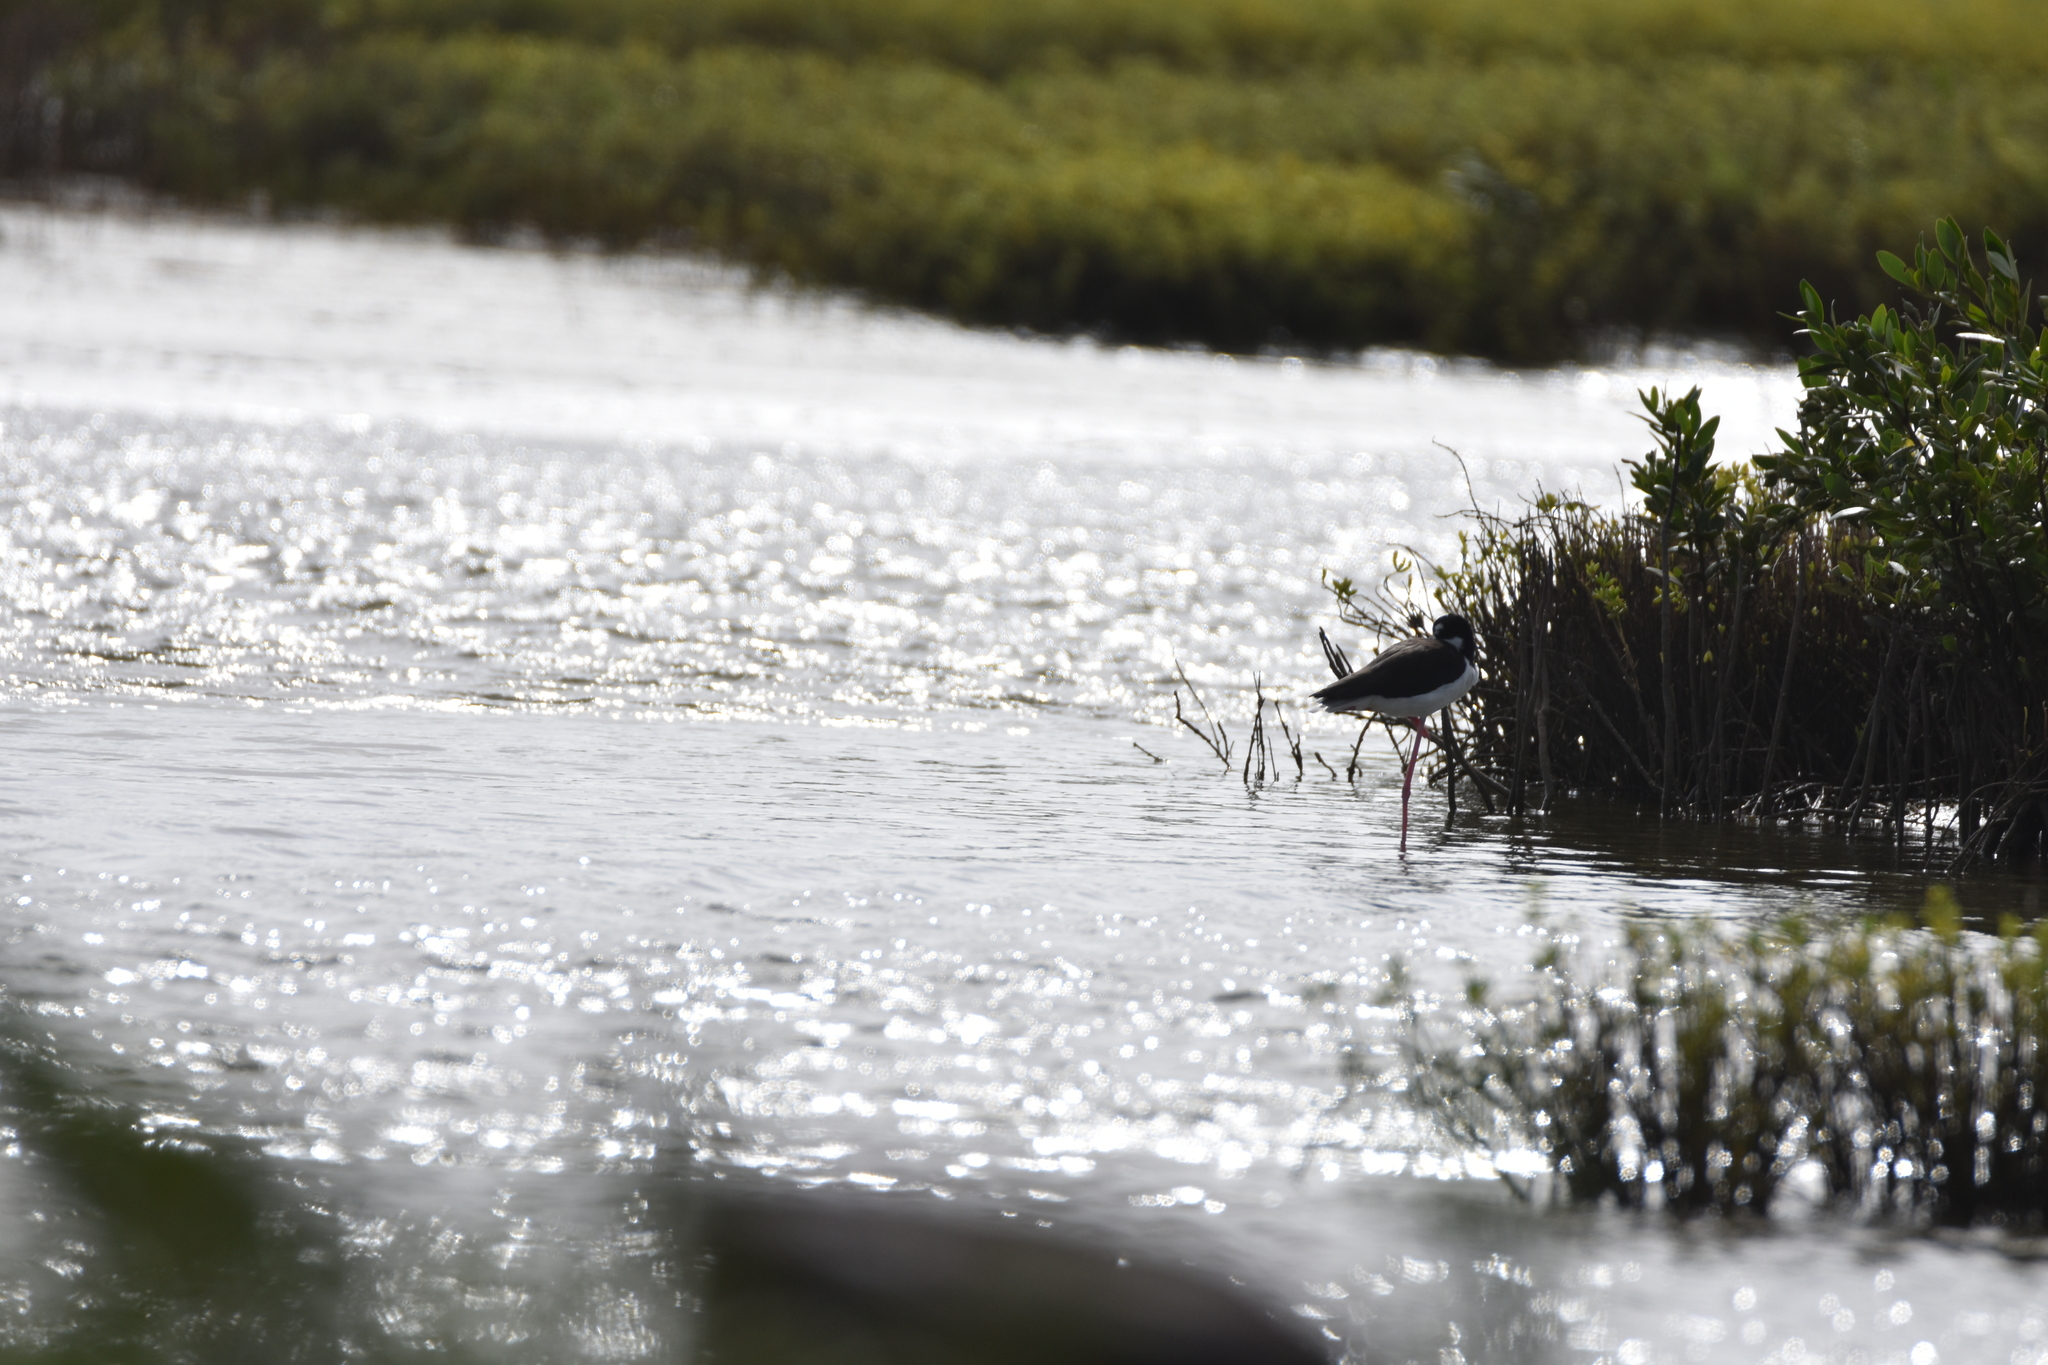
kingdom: Animalia
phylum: Chordata
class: Aves
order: Charadriiformes
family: Recurvirostridae
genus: Himantopus
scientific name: Himantopus mexicanus
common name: Black-necked stilt
